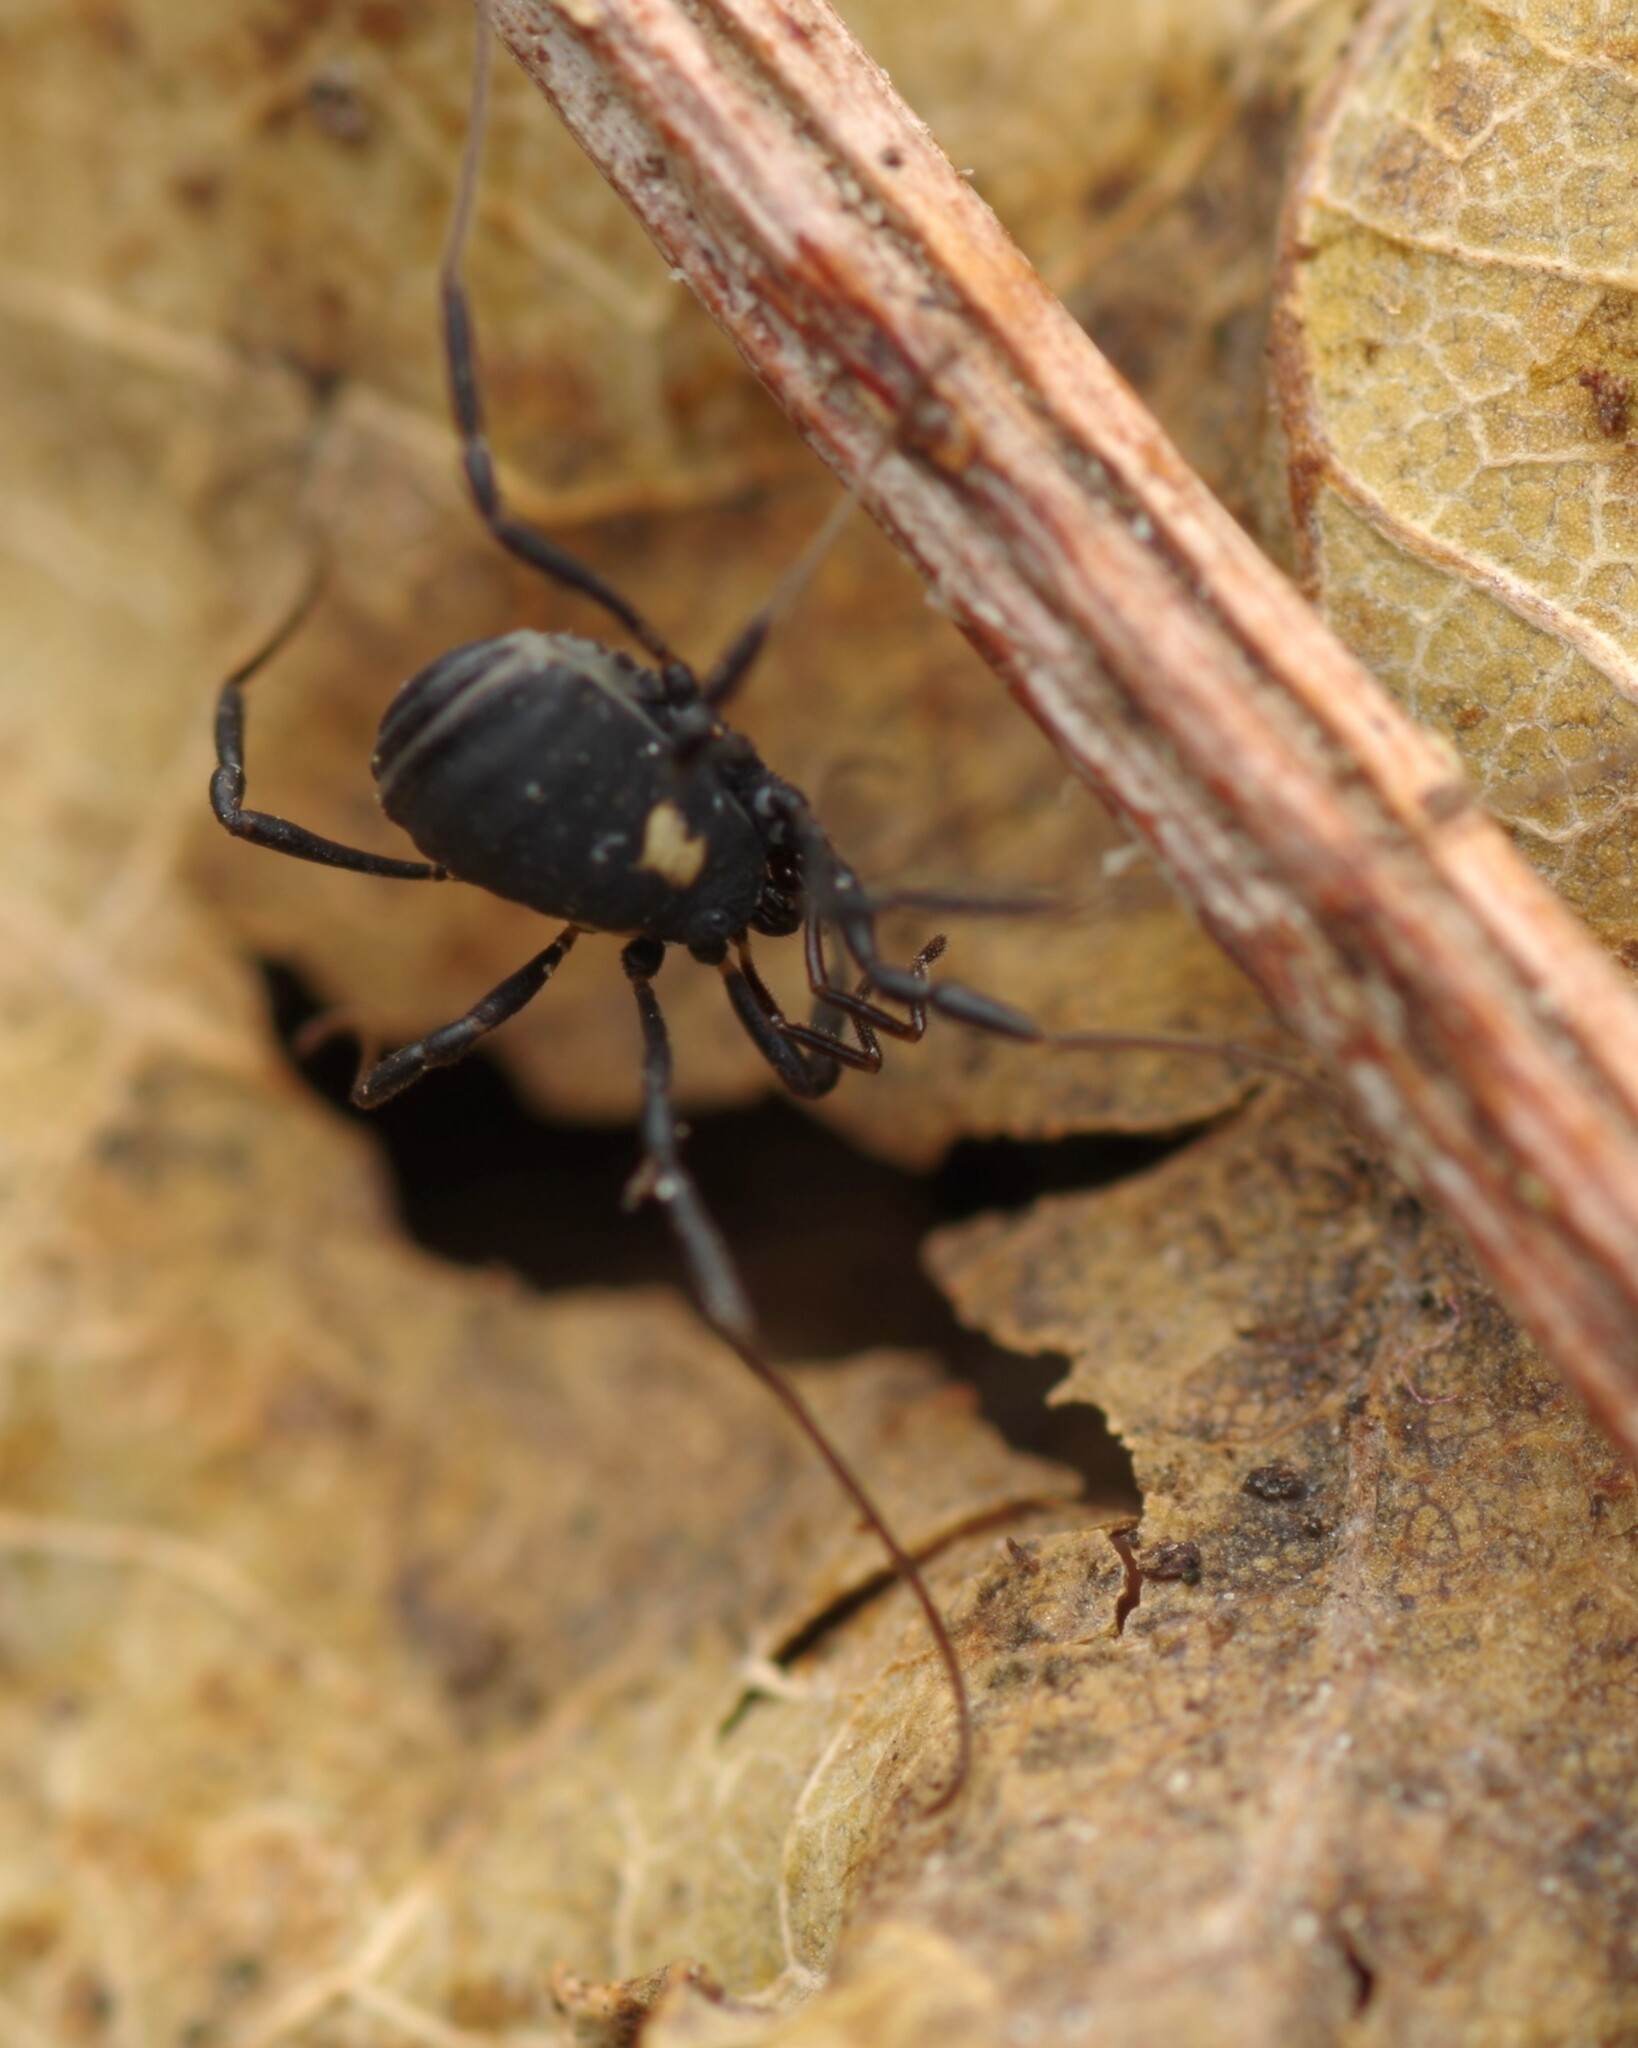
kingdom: Animalia
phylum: Arthropoda
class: Arachnida
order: Opiliones
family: Nemastomatidae
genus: Nemastoma
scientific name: Nemastoma bimaculatum
